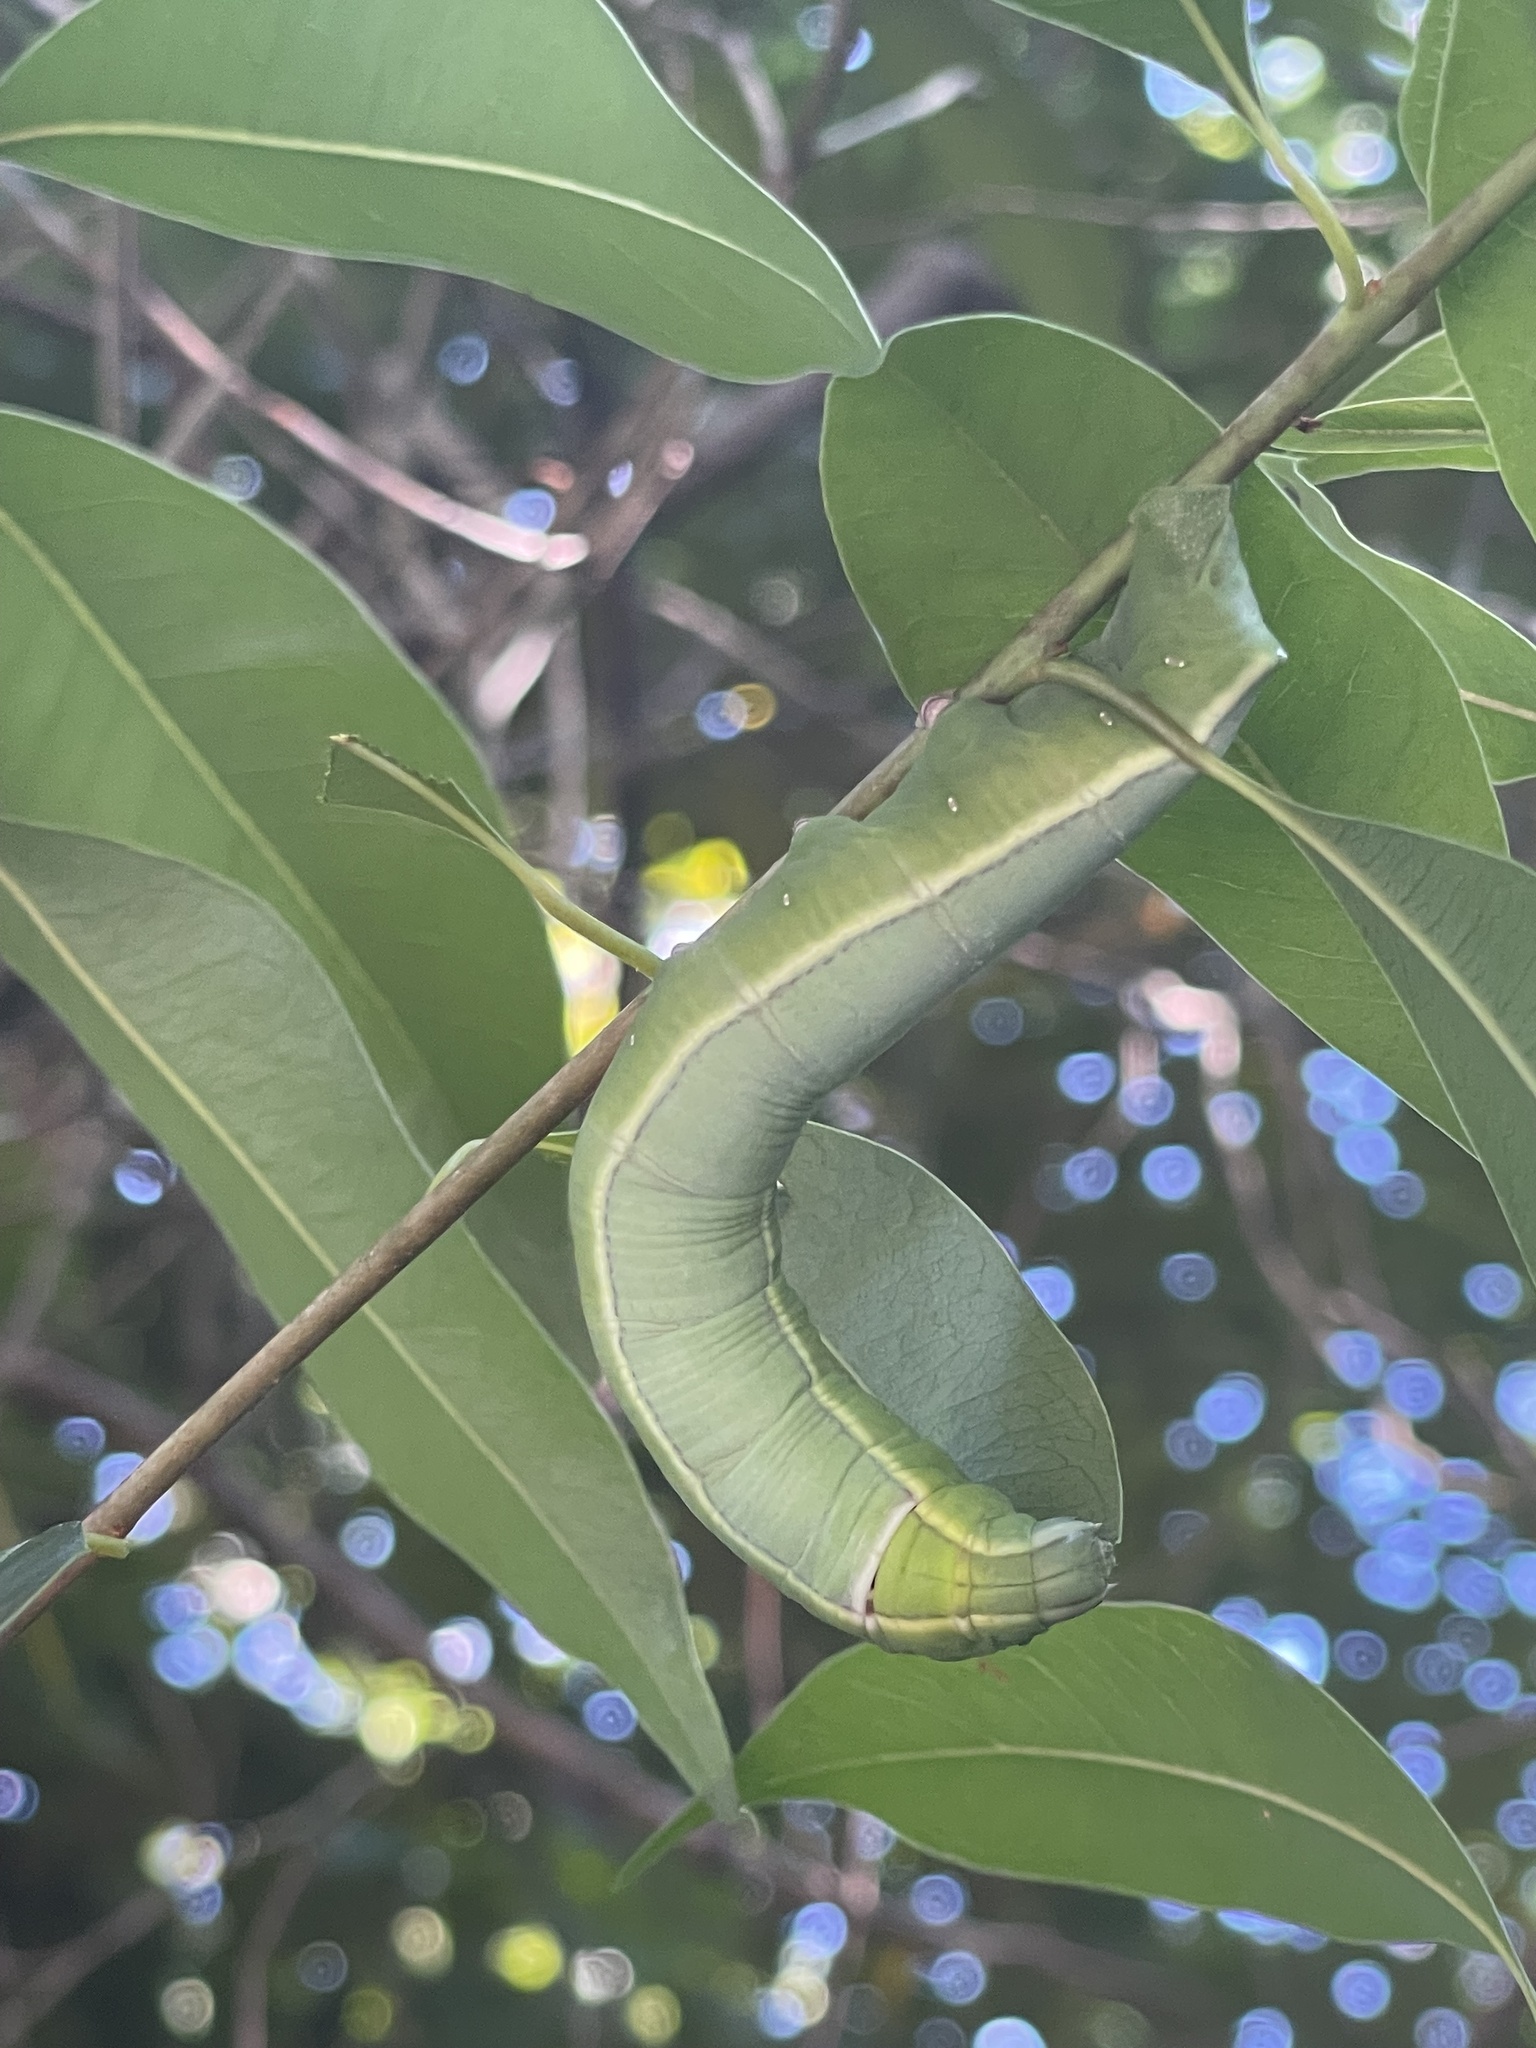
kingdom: Animalia
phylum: Arthropoda
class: Insecta
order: Lepidoptera
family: Sphingidae
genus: Erinnyis
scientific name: Erinnyis ello
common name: Ello sphinx
